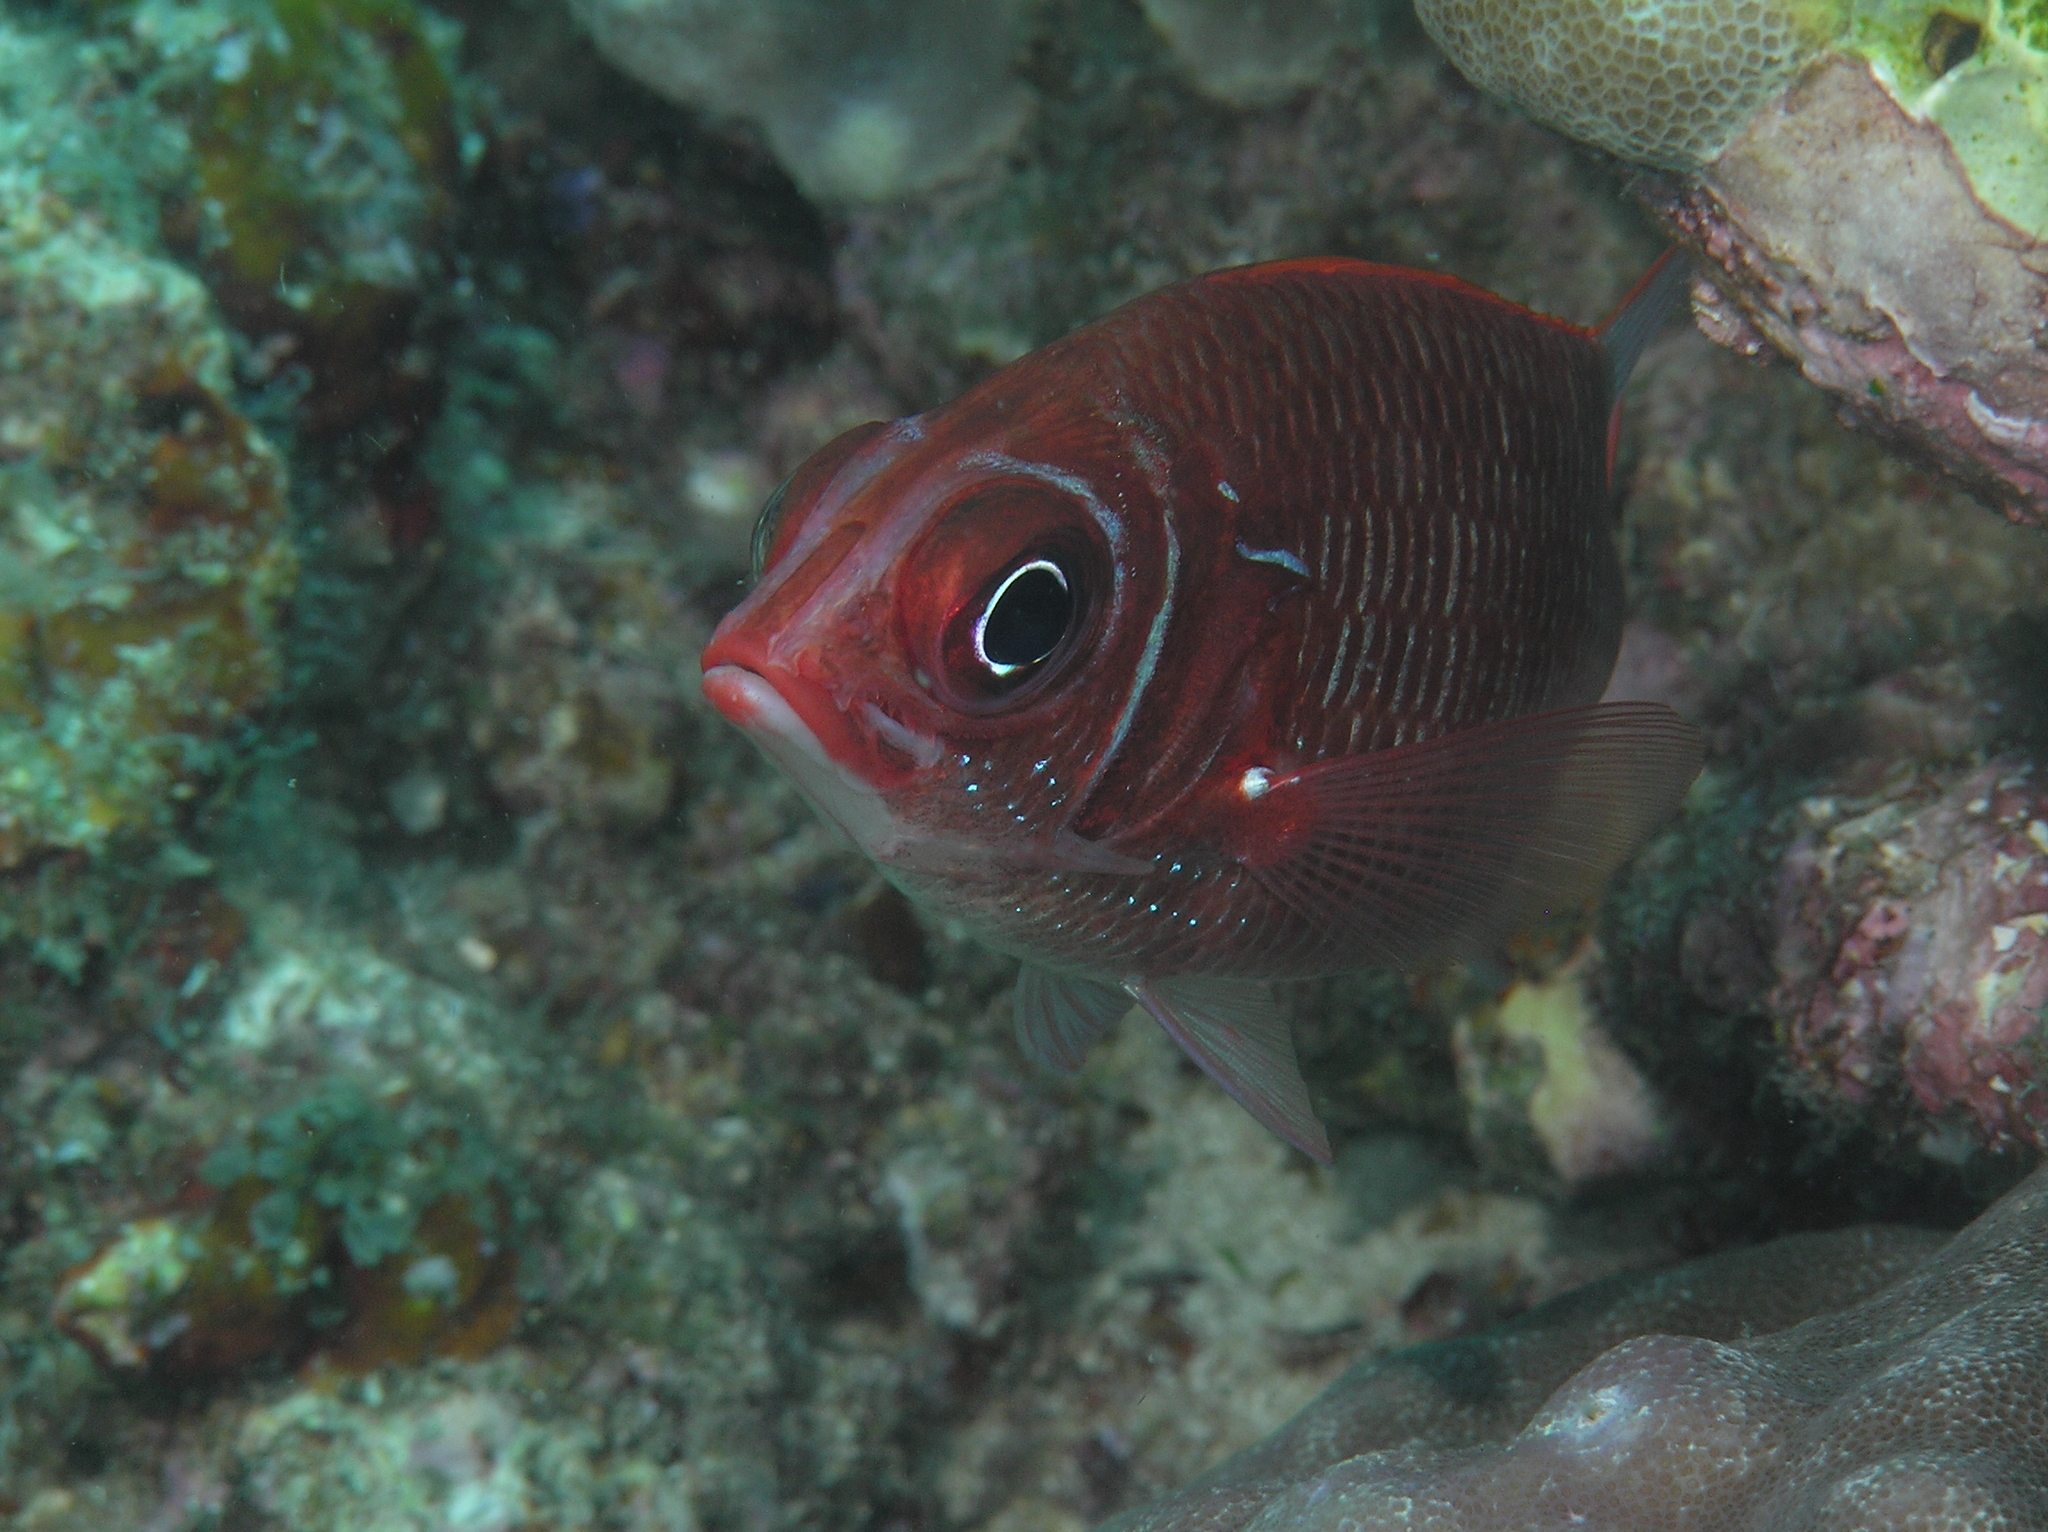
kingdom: Animalia
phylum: Chordata
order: Beryciformes
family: Holocentridae
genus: Sargocentron
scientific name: Sargocentron caudimaculatum
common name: Fanfin soldier
